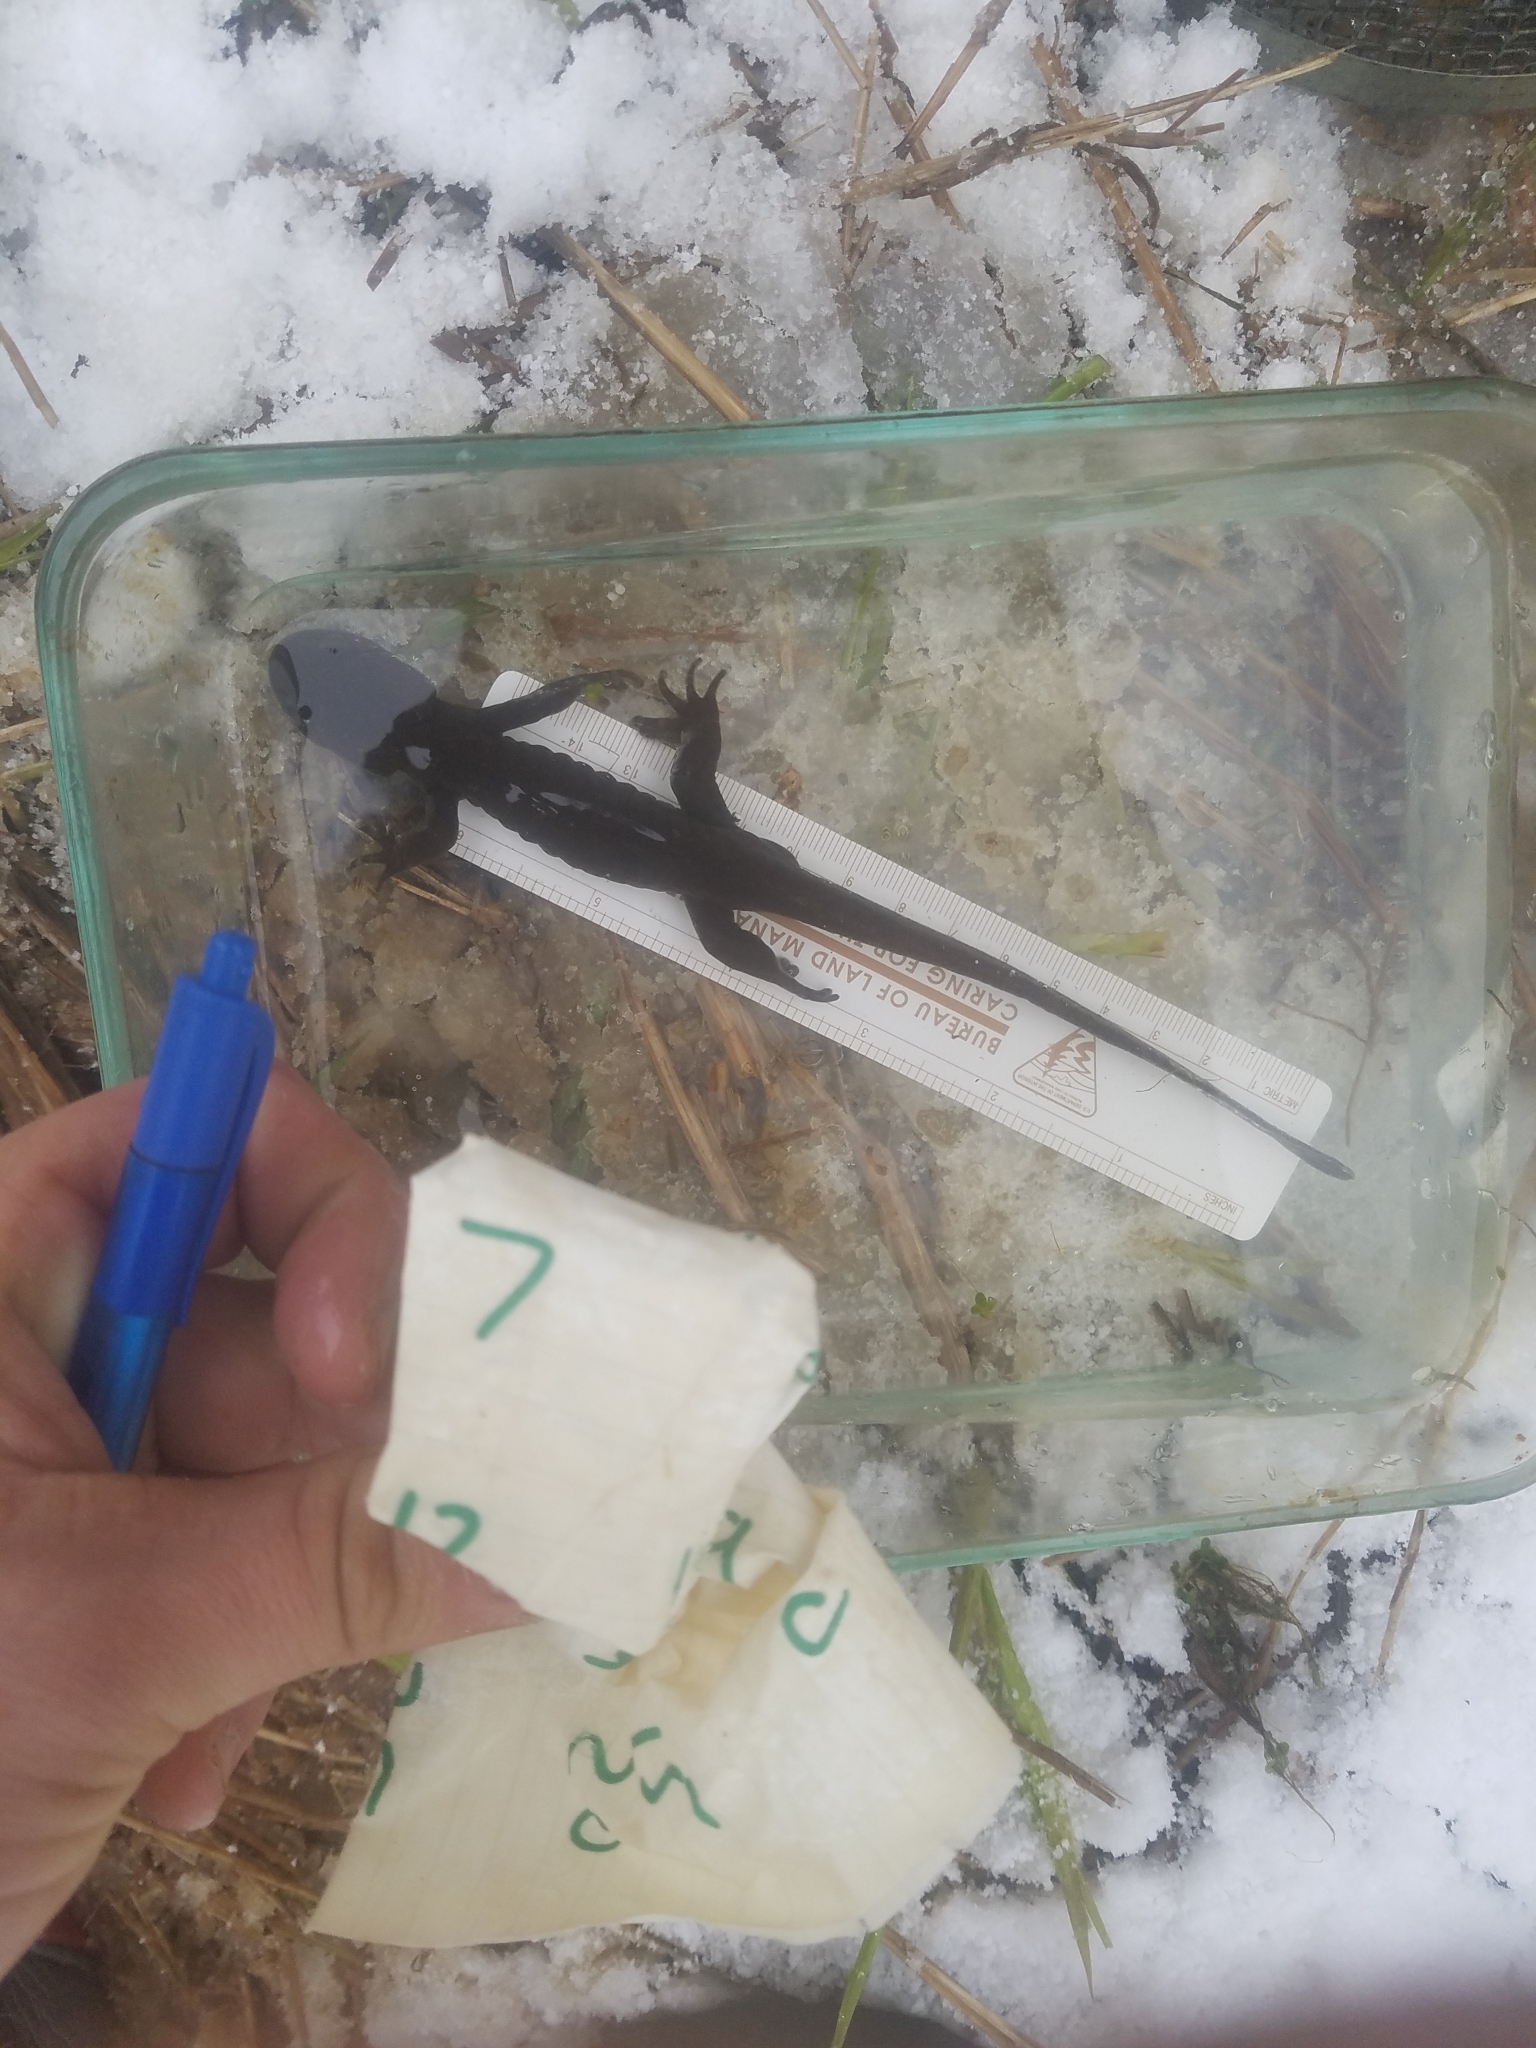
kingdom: Animalia
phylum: Chordata
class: Amphibia
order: Caudata
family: Ambystomatidae
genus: Ambystoma
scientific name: Ambystoma gracile
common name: Northwestern salamander
